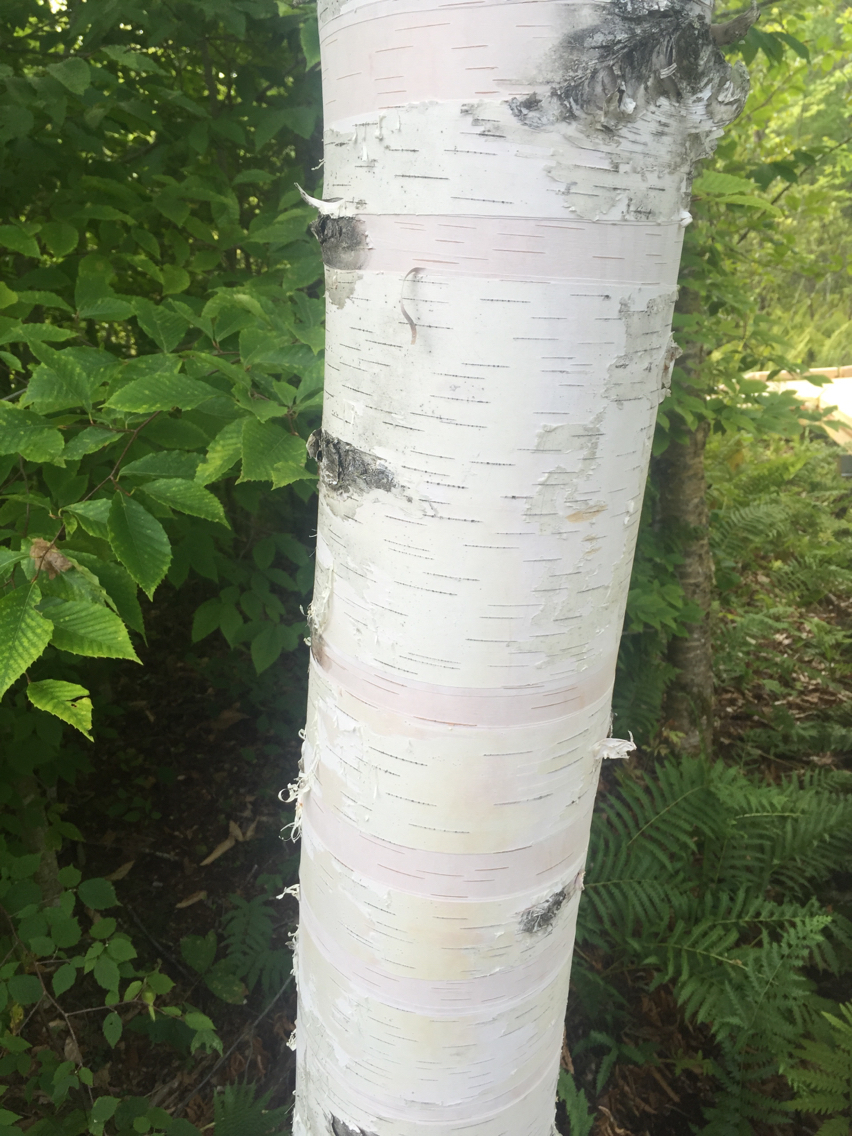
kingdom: Plantae
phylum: Tracheophyta
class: Magnoliopsida
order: Fagales
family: Betulaceae
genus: Betula
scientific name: Betula papyrifera
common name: Paper birch
